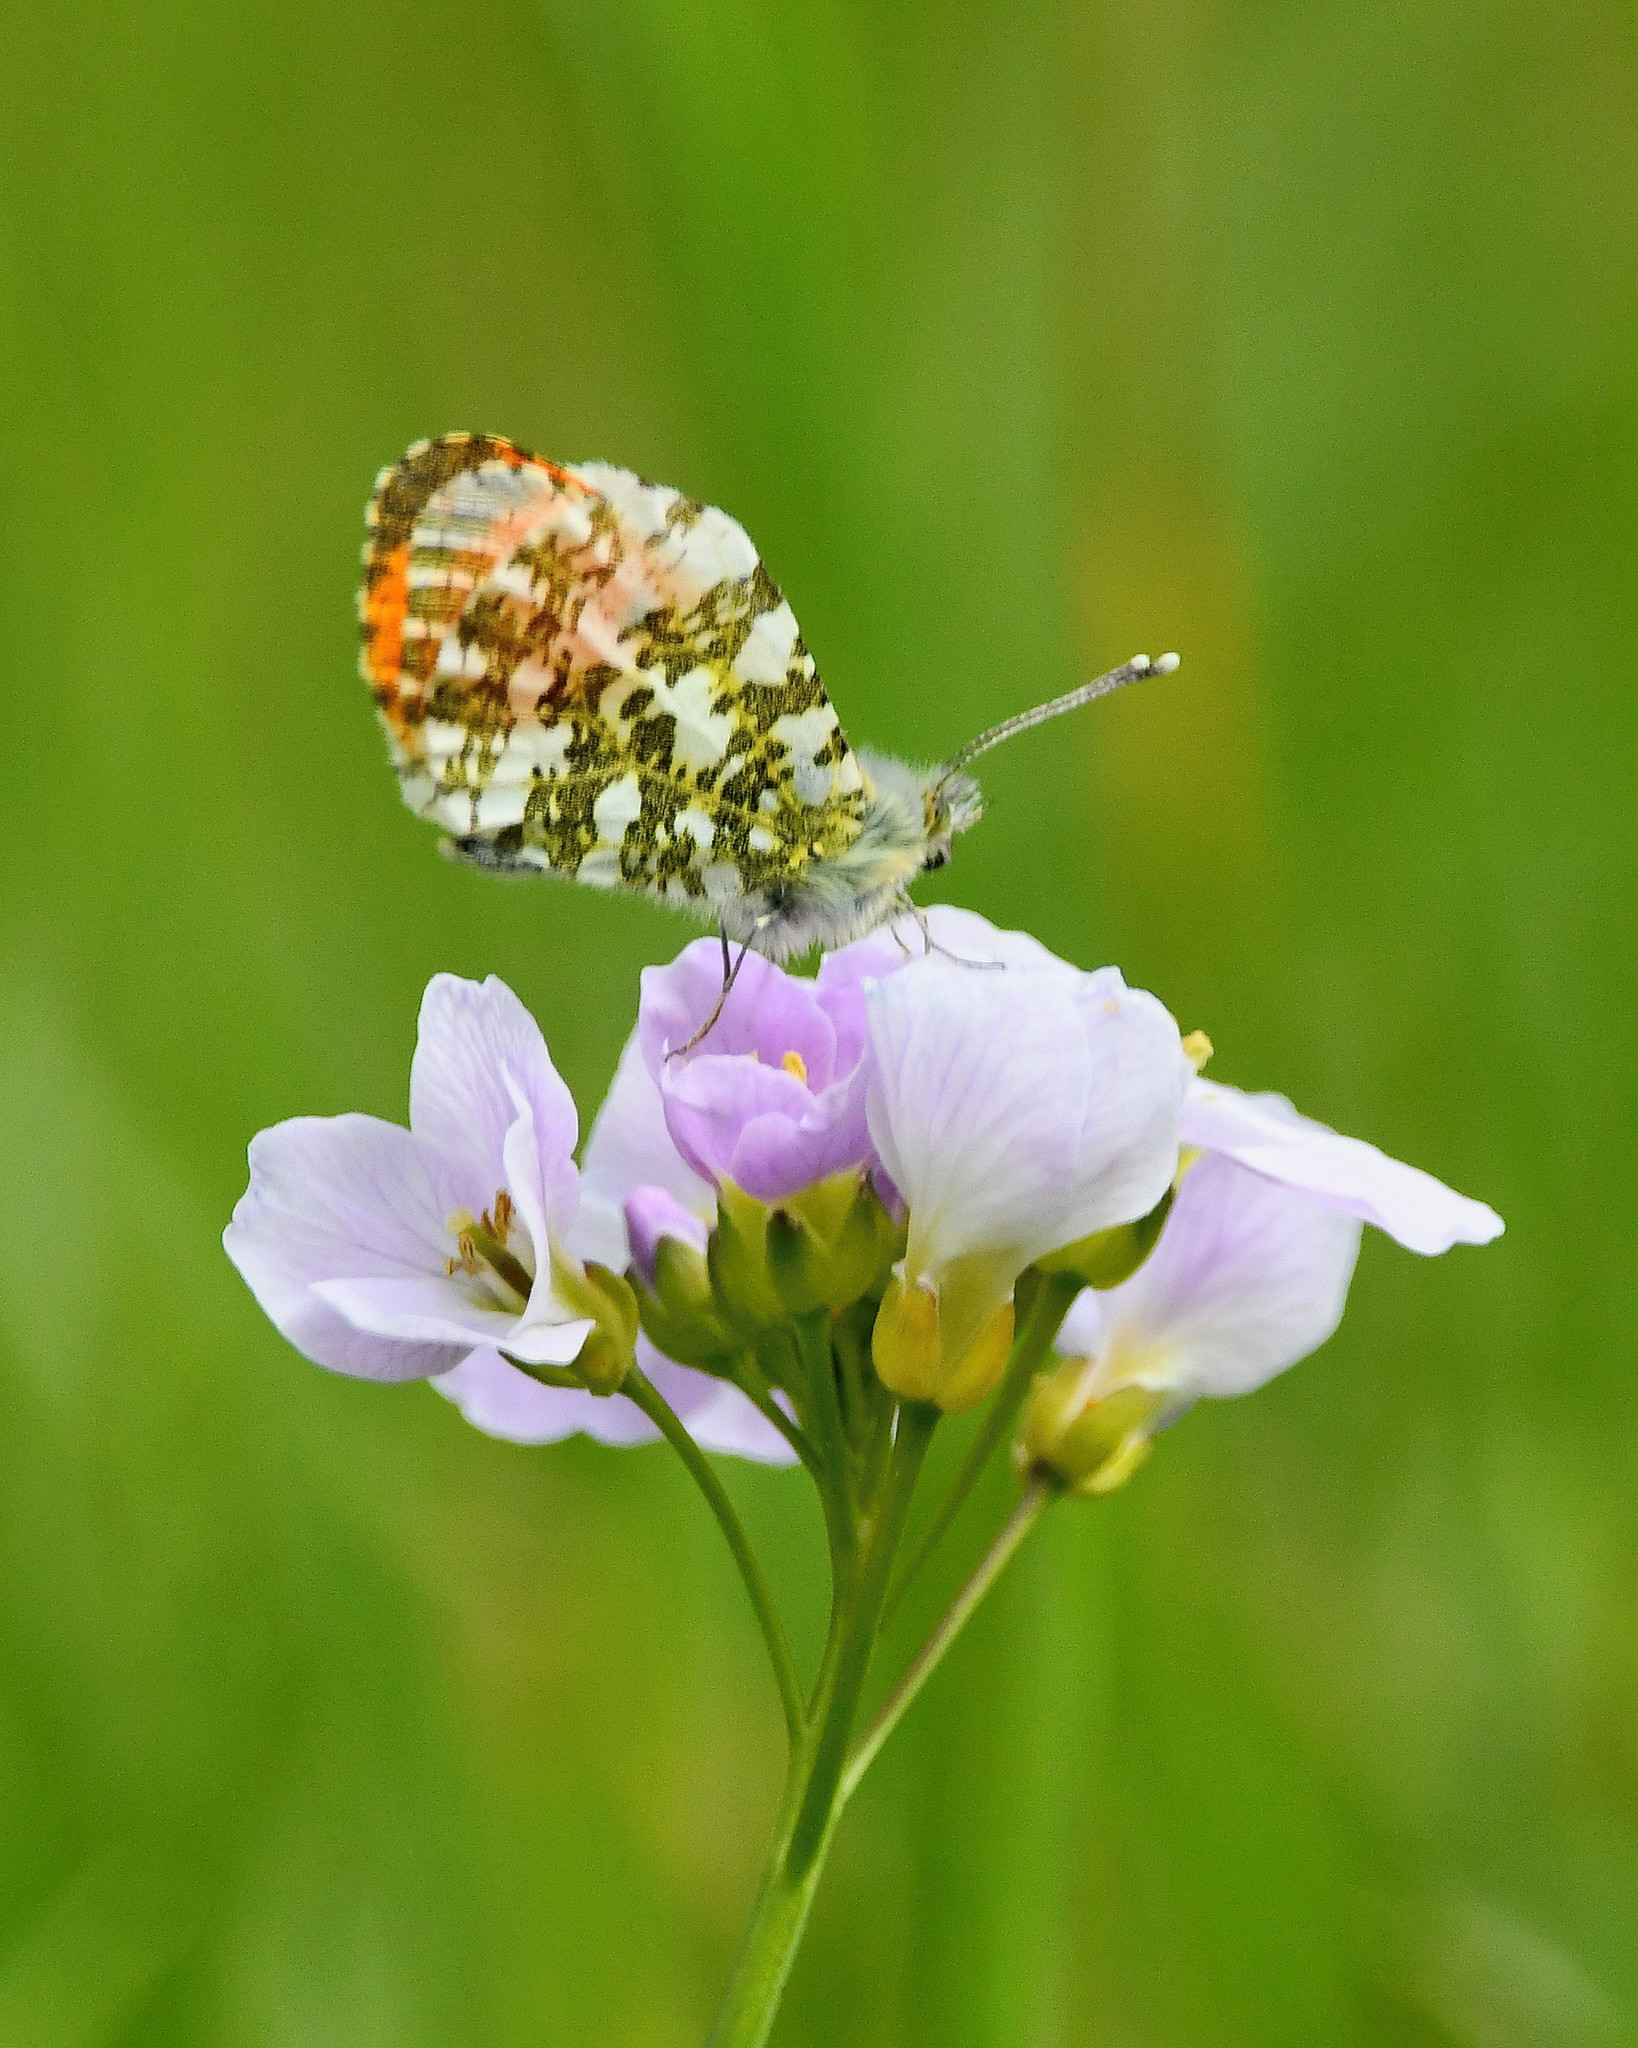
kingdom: Animalia
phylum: Arthropoda
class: Insecta
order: Lepidoptera
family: Pieridae
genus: Anthocharis
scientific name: Anthocharis cardamines
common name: Orange-tip
